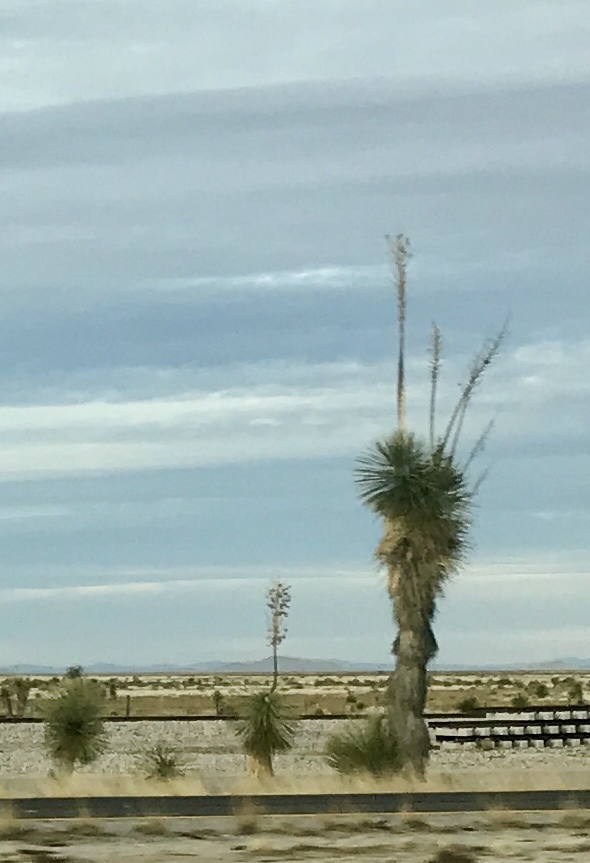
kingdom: Plantae
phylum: Tracheophyta
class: Liliopsida
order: Asparagales
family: Asparagaceae
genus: Yucca
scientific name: Yucca elata
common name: Palmella
